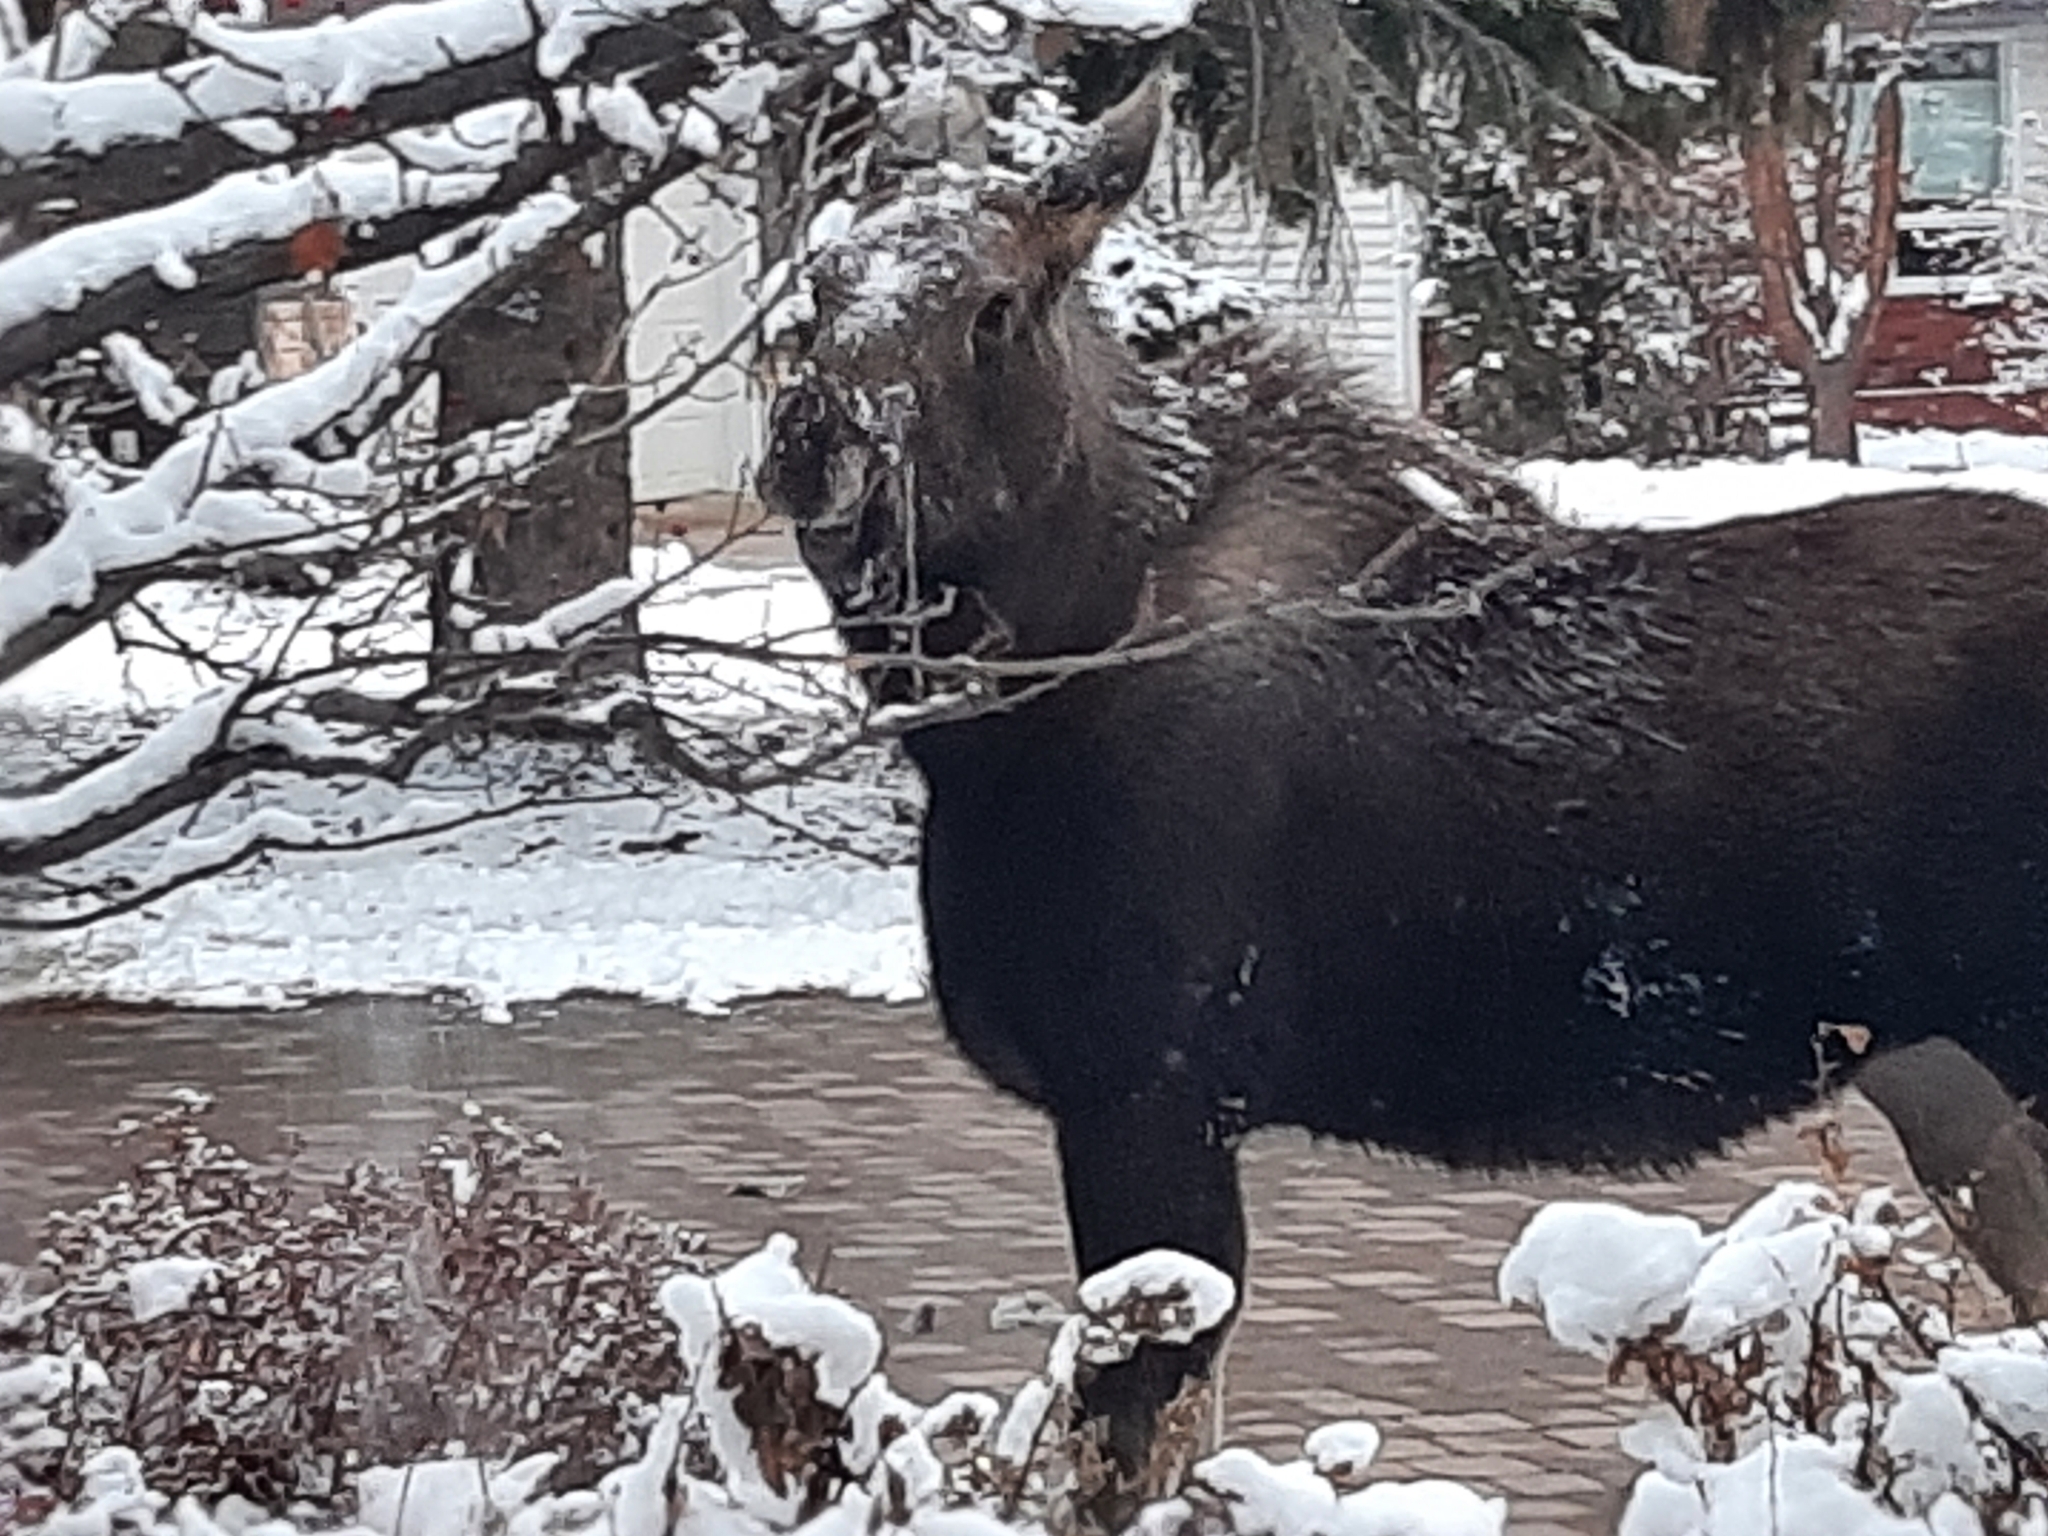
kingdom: Animalia
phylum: Chordata
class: Mammalia
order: Artiodactyla
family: Cervidae
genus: Alces
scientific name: Alces alces
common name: Moose
